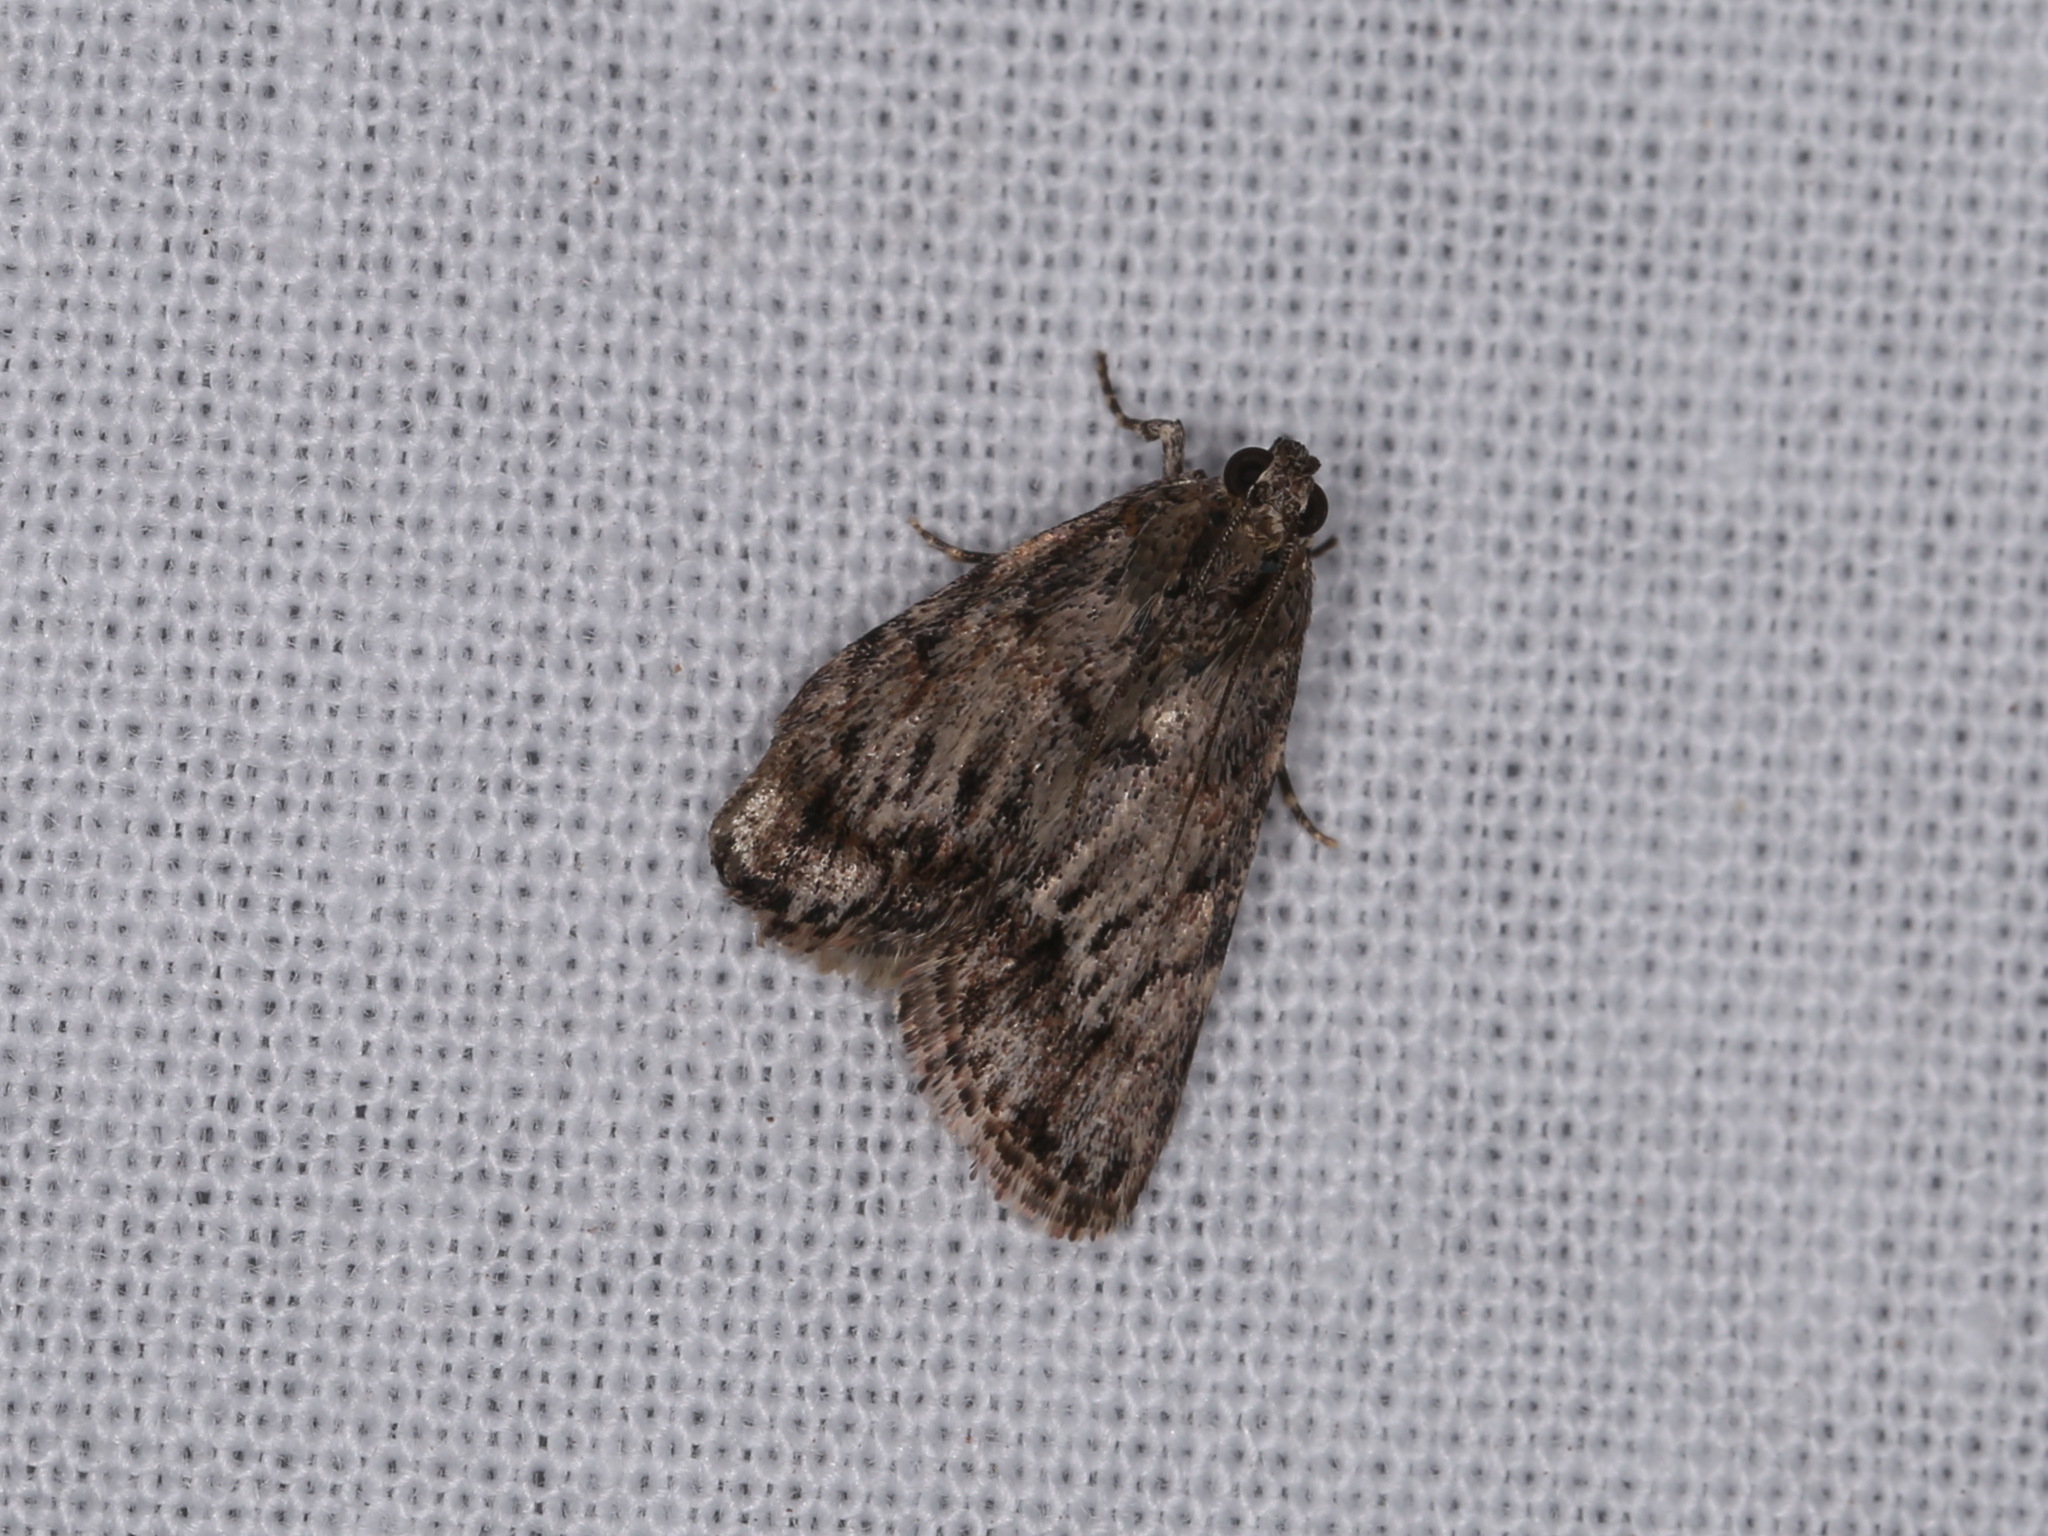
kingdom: Animalia
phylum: Arthropoda
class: Insecta
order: Lepidoptera
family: Pyralidae
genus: Spectrotrota
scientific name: Spectrotrota fimbrialis
